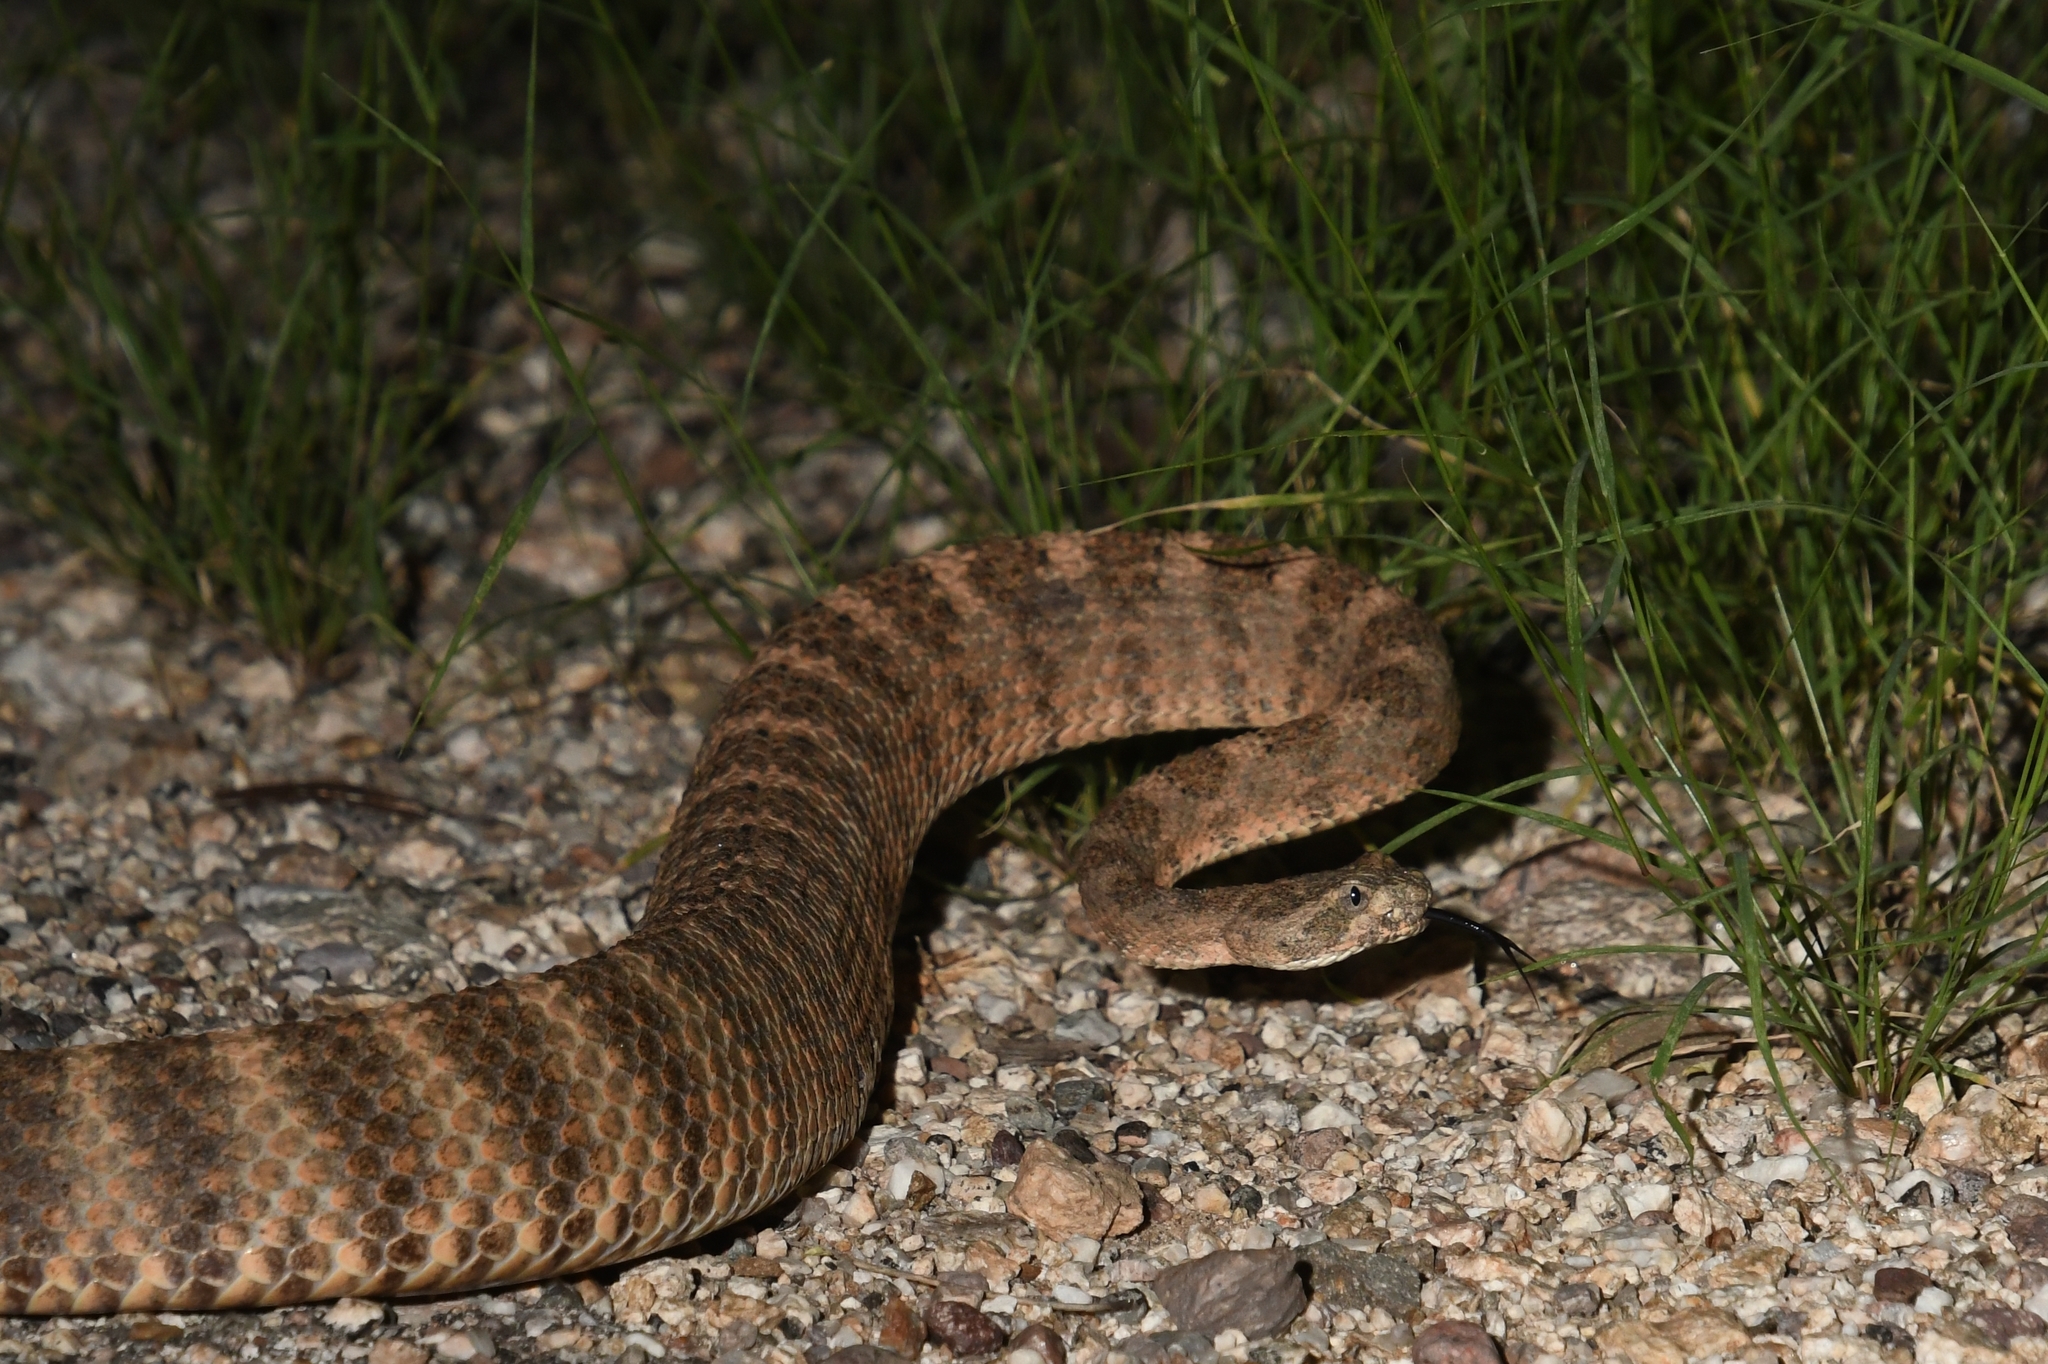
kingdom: Animalia
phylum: Chordata
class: Squamata
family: Viperidae
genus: Crotalus
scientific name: Crotalus tigris
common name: Tiger rattlesnake
